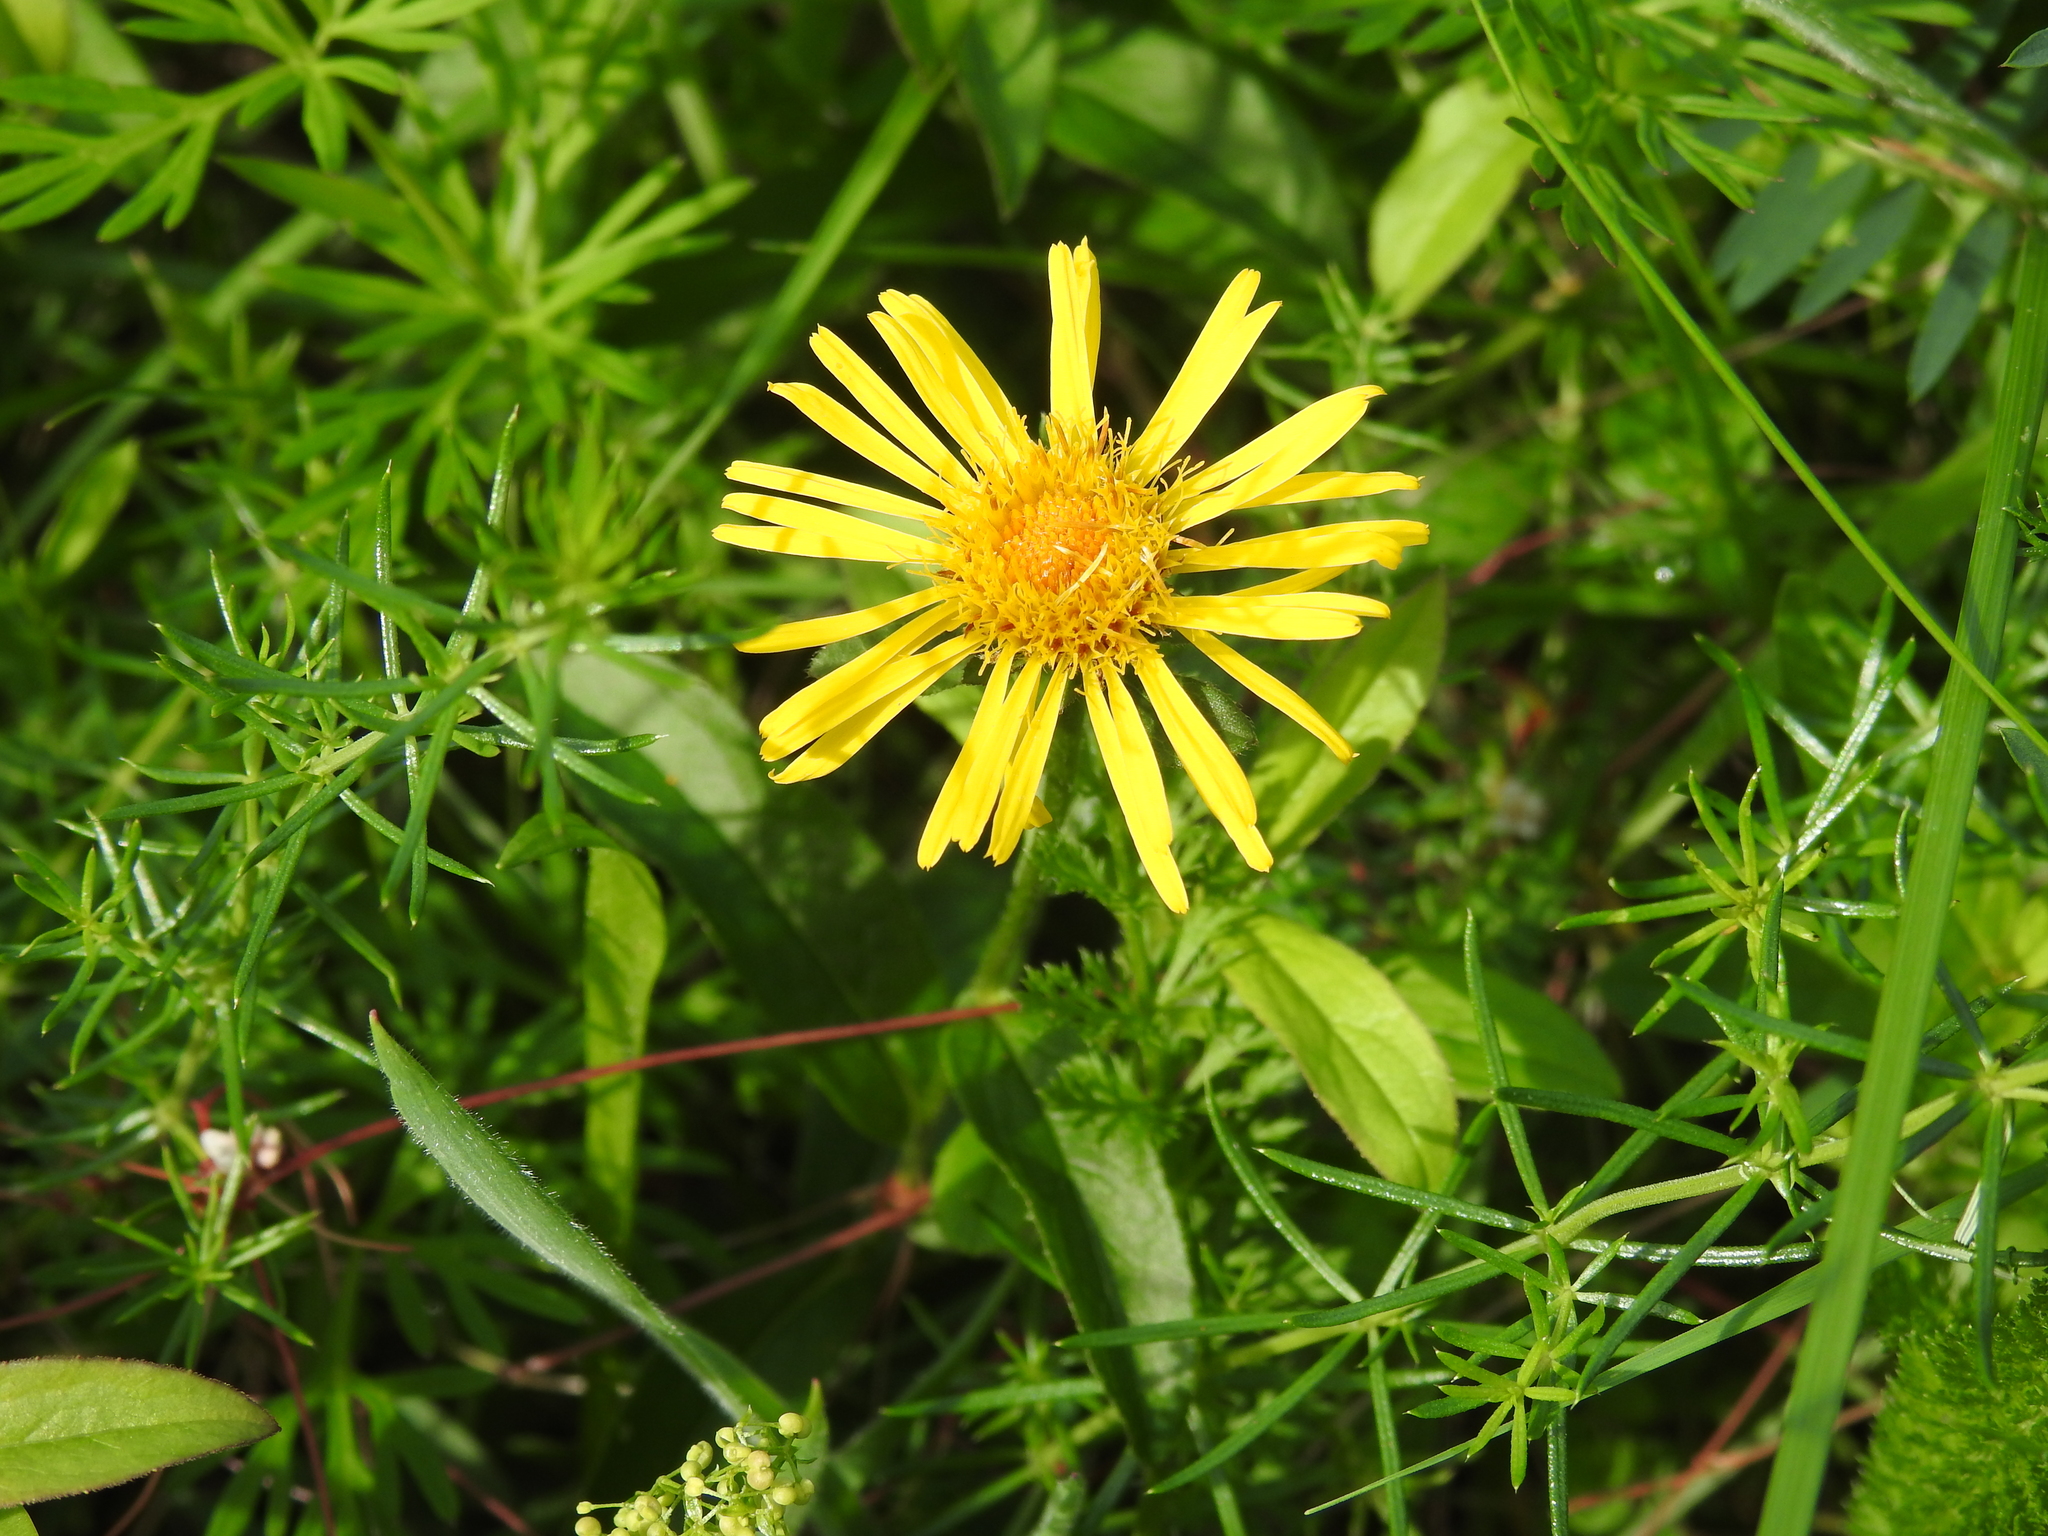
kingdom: Plantae
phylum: Tracheophyta
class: Magnoliopsida
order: Asterales
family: Asteraceae
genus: Pentanema
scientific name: Pentanema salicinum
